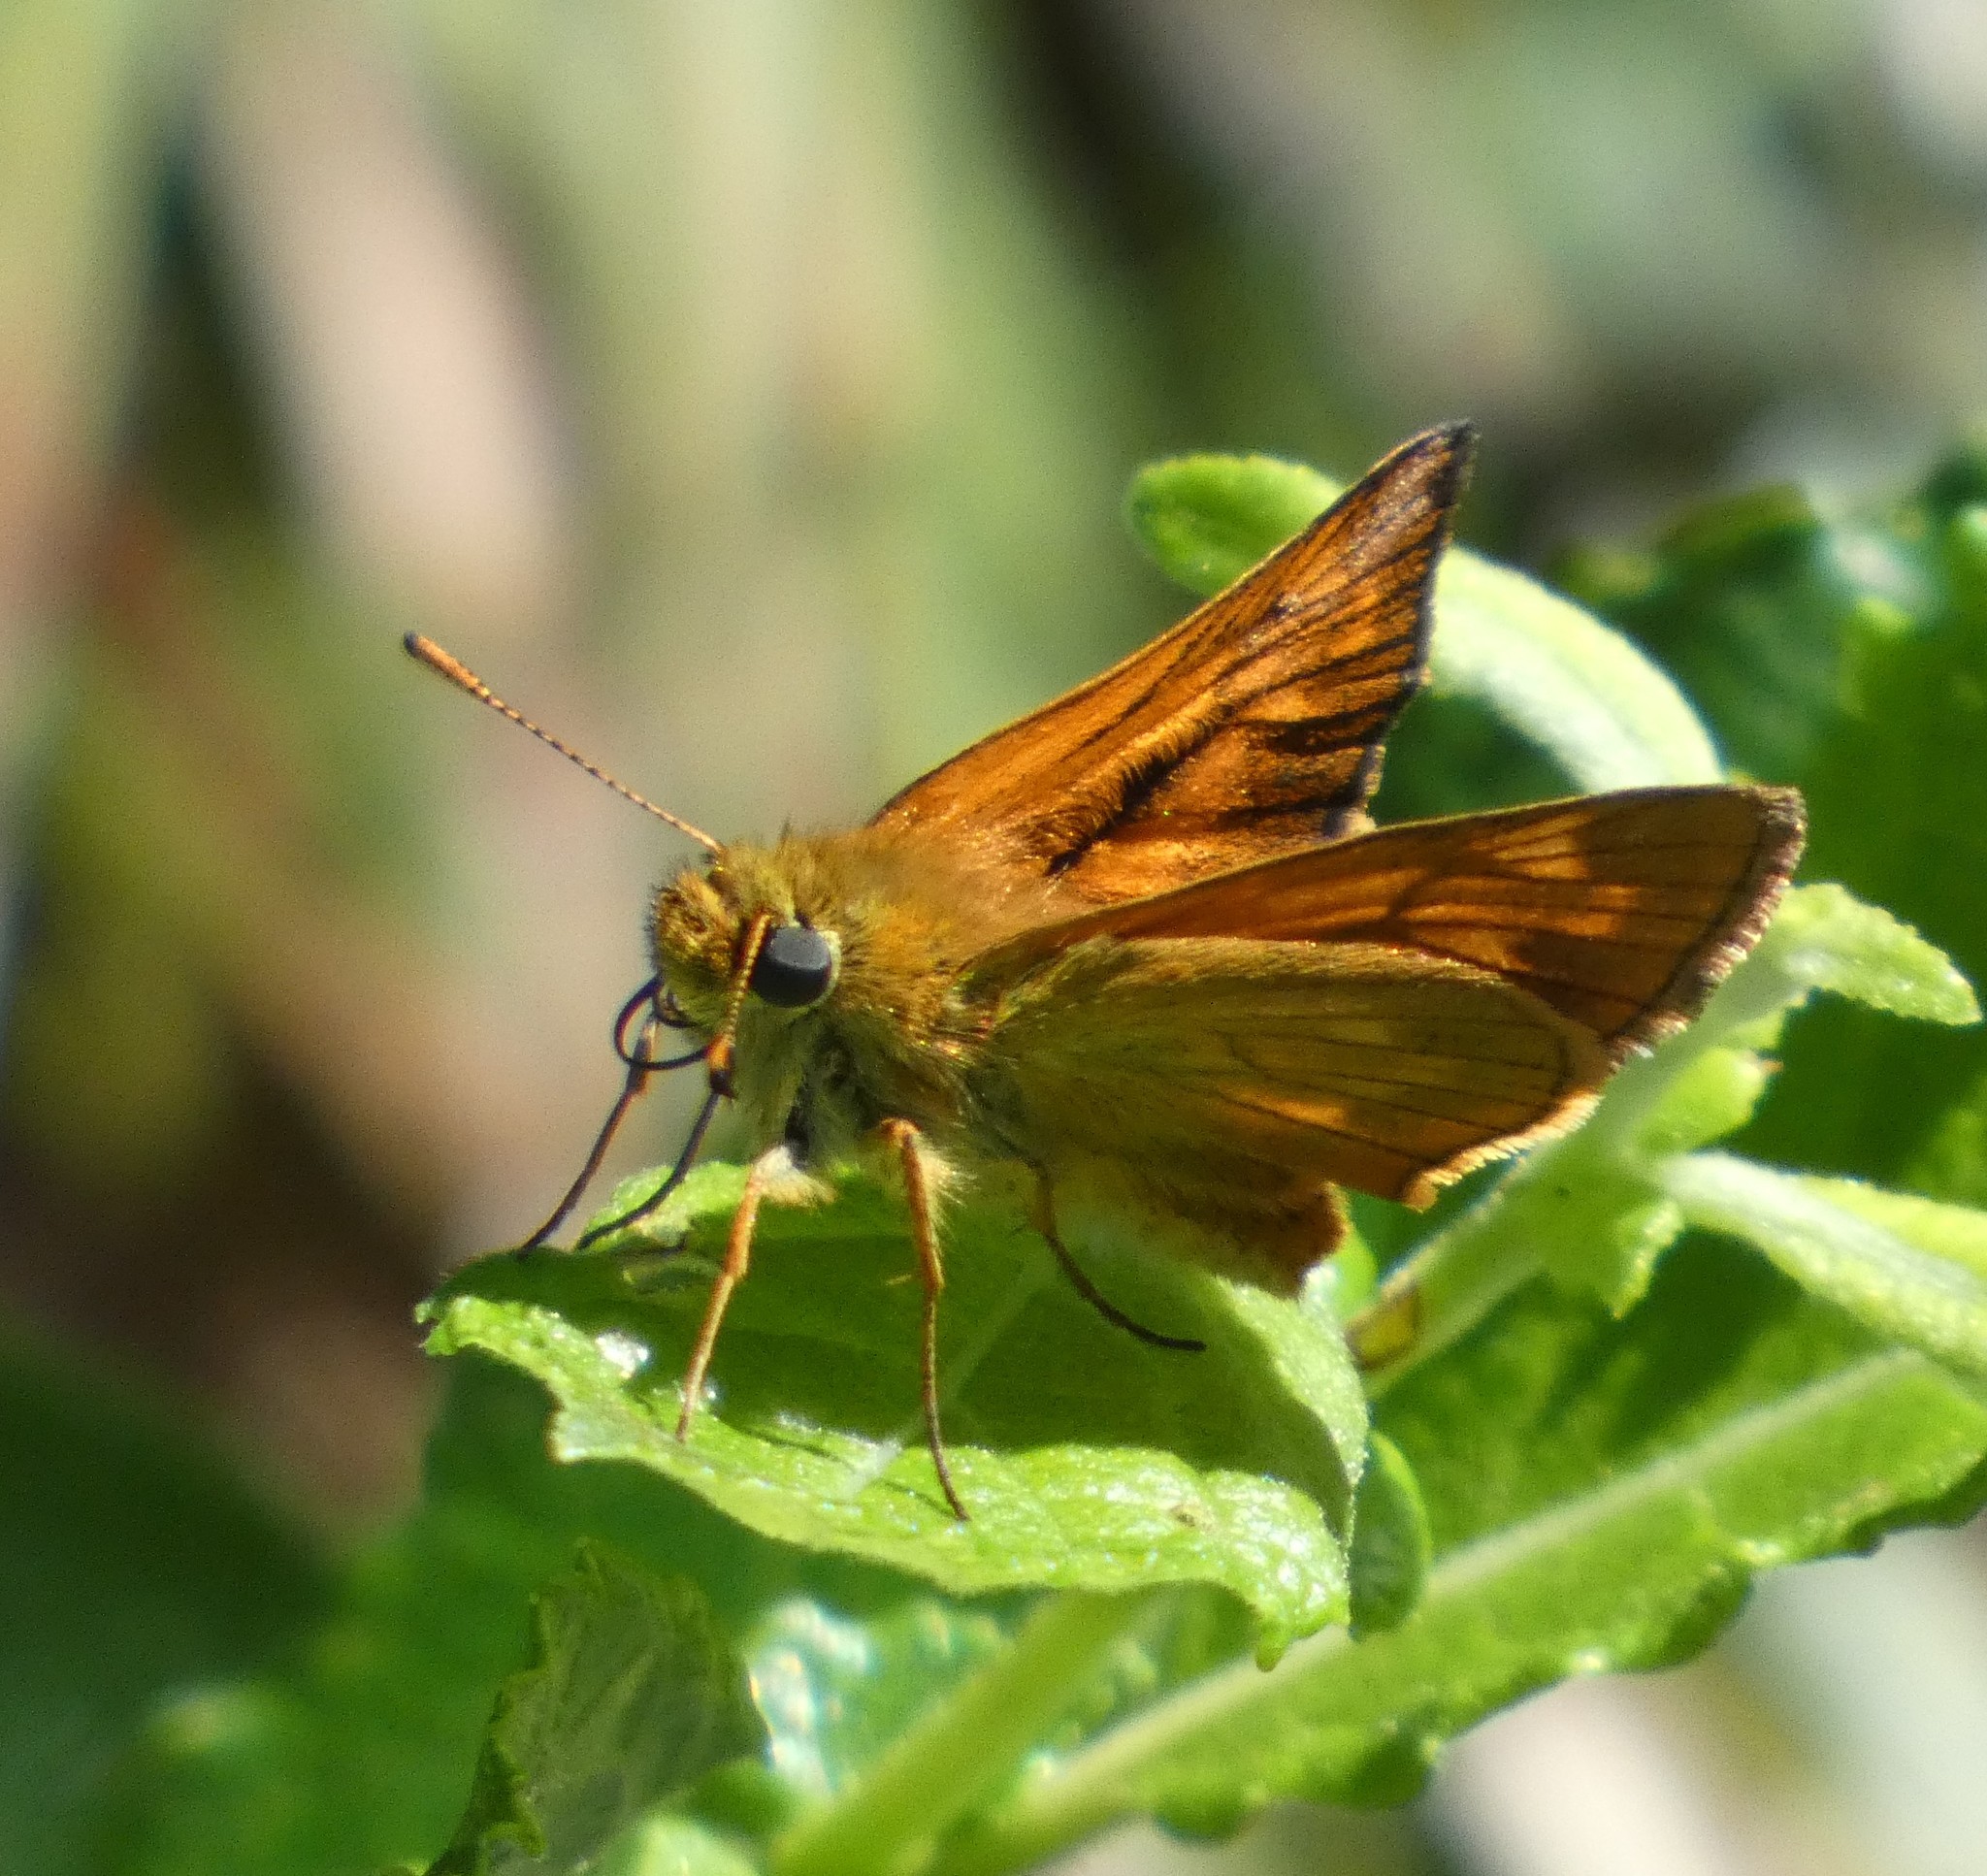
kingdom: Animalia
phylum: Arthropoda
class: Insecta
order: Lepidoptera
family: Hesperiidae
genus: Ochlodes
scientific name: Ochlodes venata
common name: Large skipper
